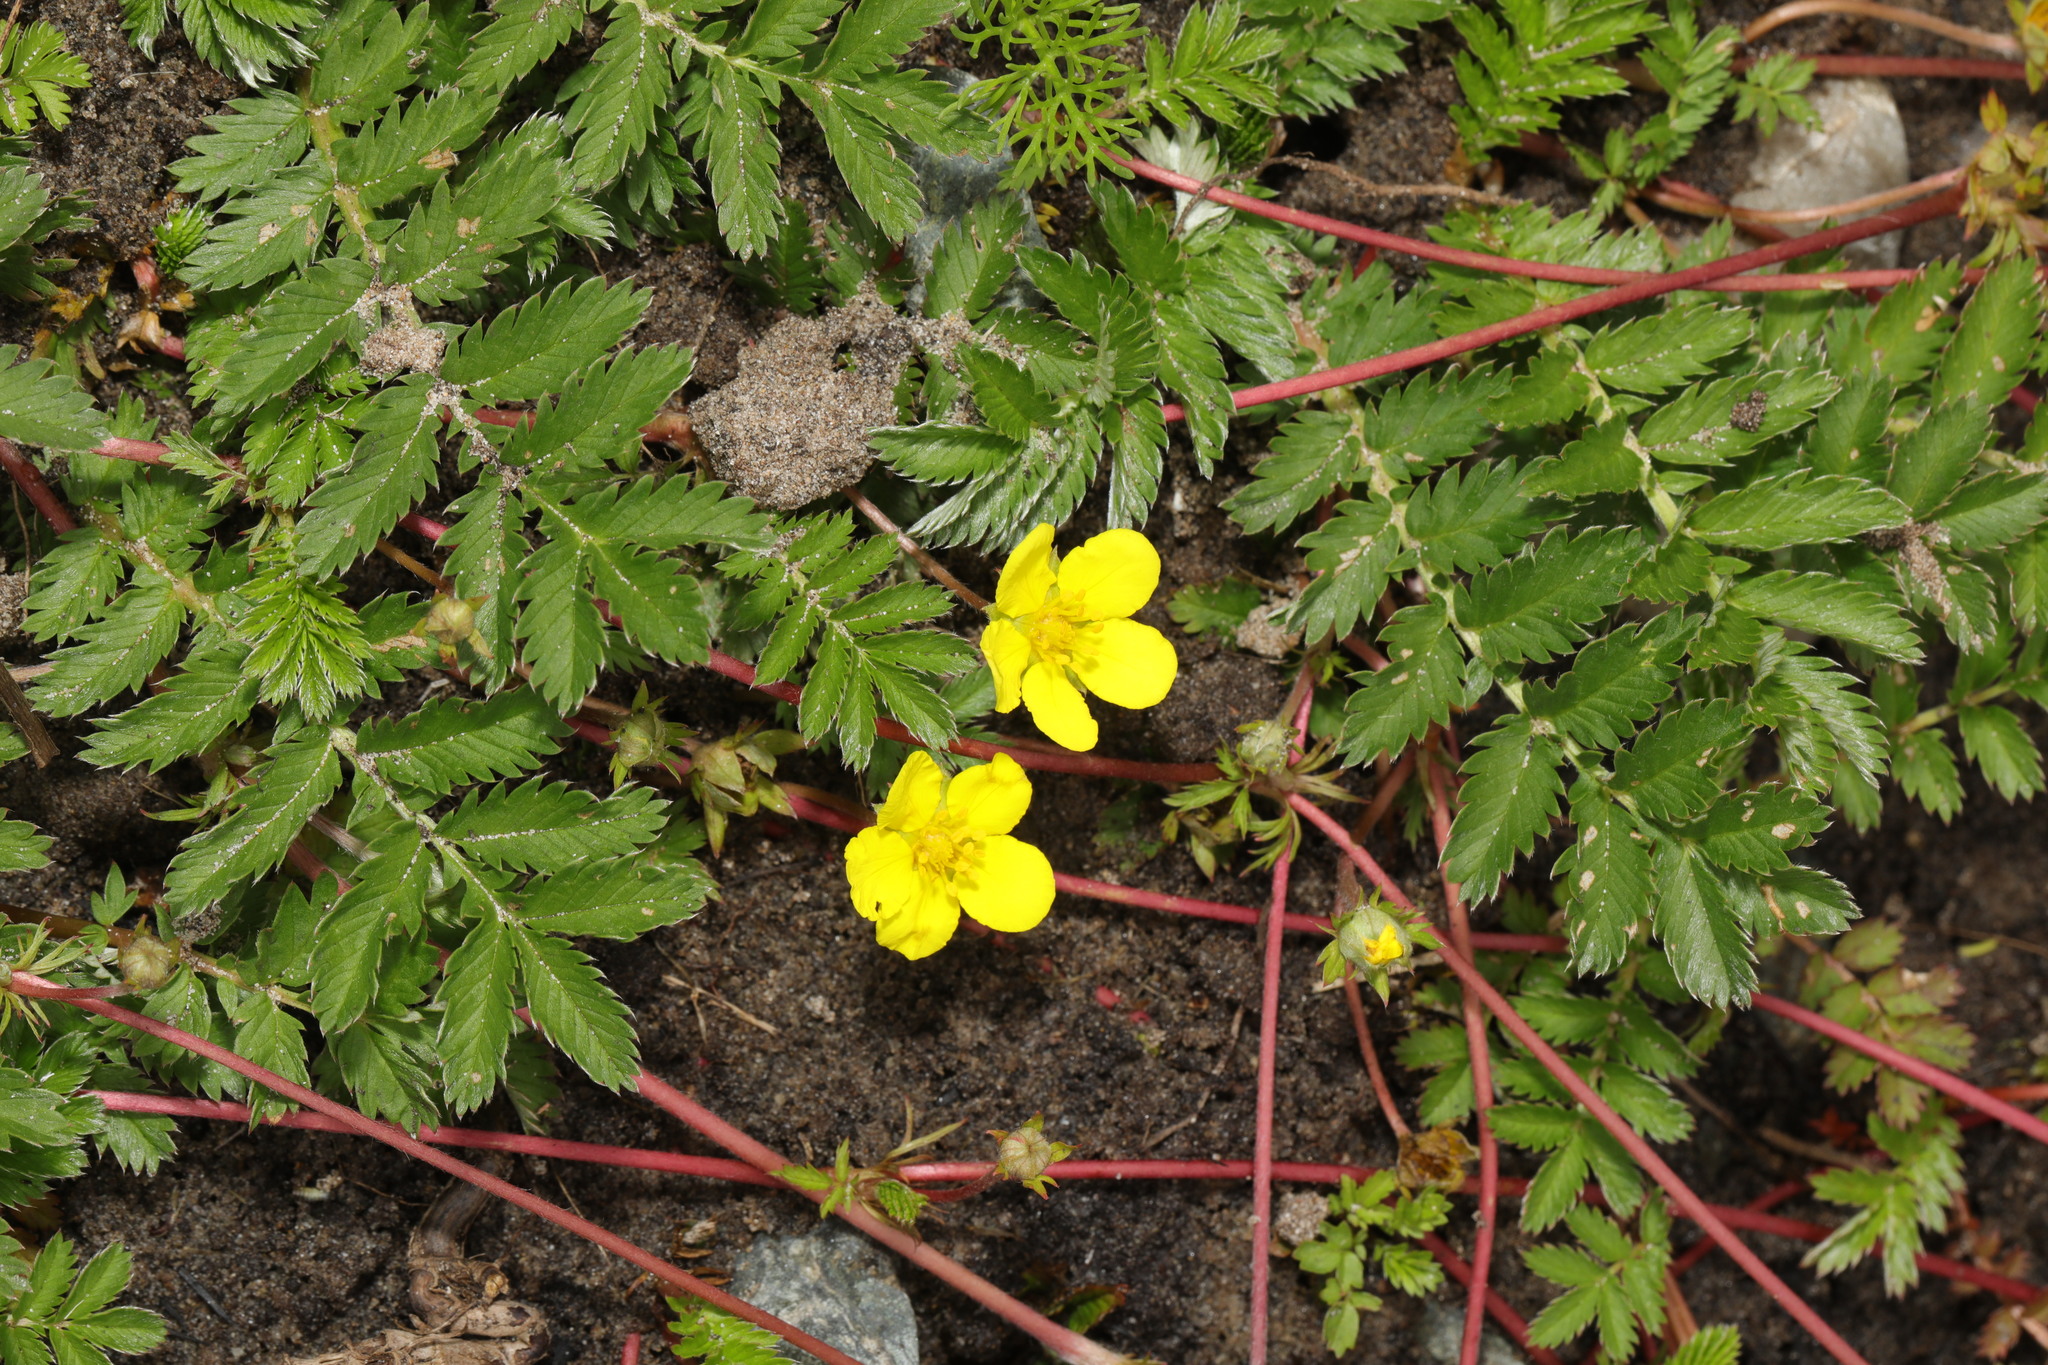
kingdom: Plantae
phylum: Tracheophyta
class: Magnoliopsida
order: Rosales
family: Rosaceae
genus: Argentina
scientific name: Argentina anserina
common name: Common silverweed
